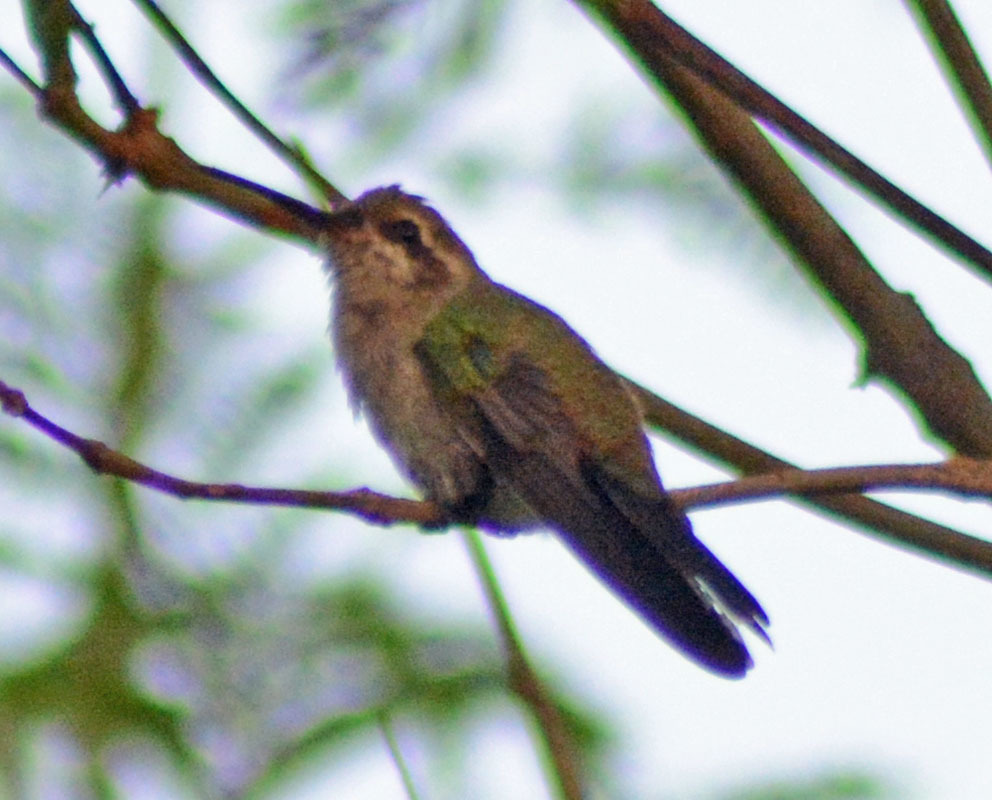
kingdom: Animalia
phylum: Chordata
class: Aves
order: Apodiformes
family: Trochilidae
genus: Cynanthus
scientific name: Cynanthus latirostris
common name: Broad-billed hummingbird
